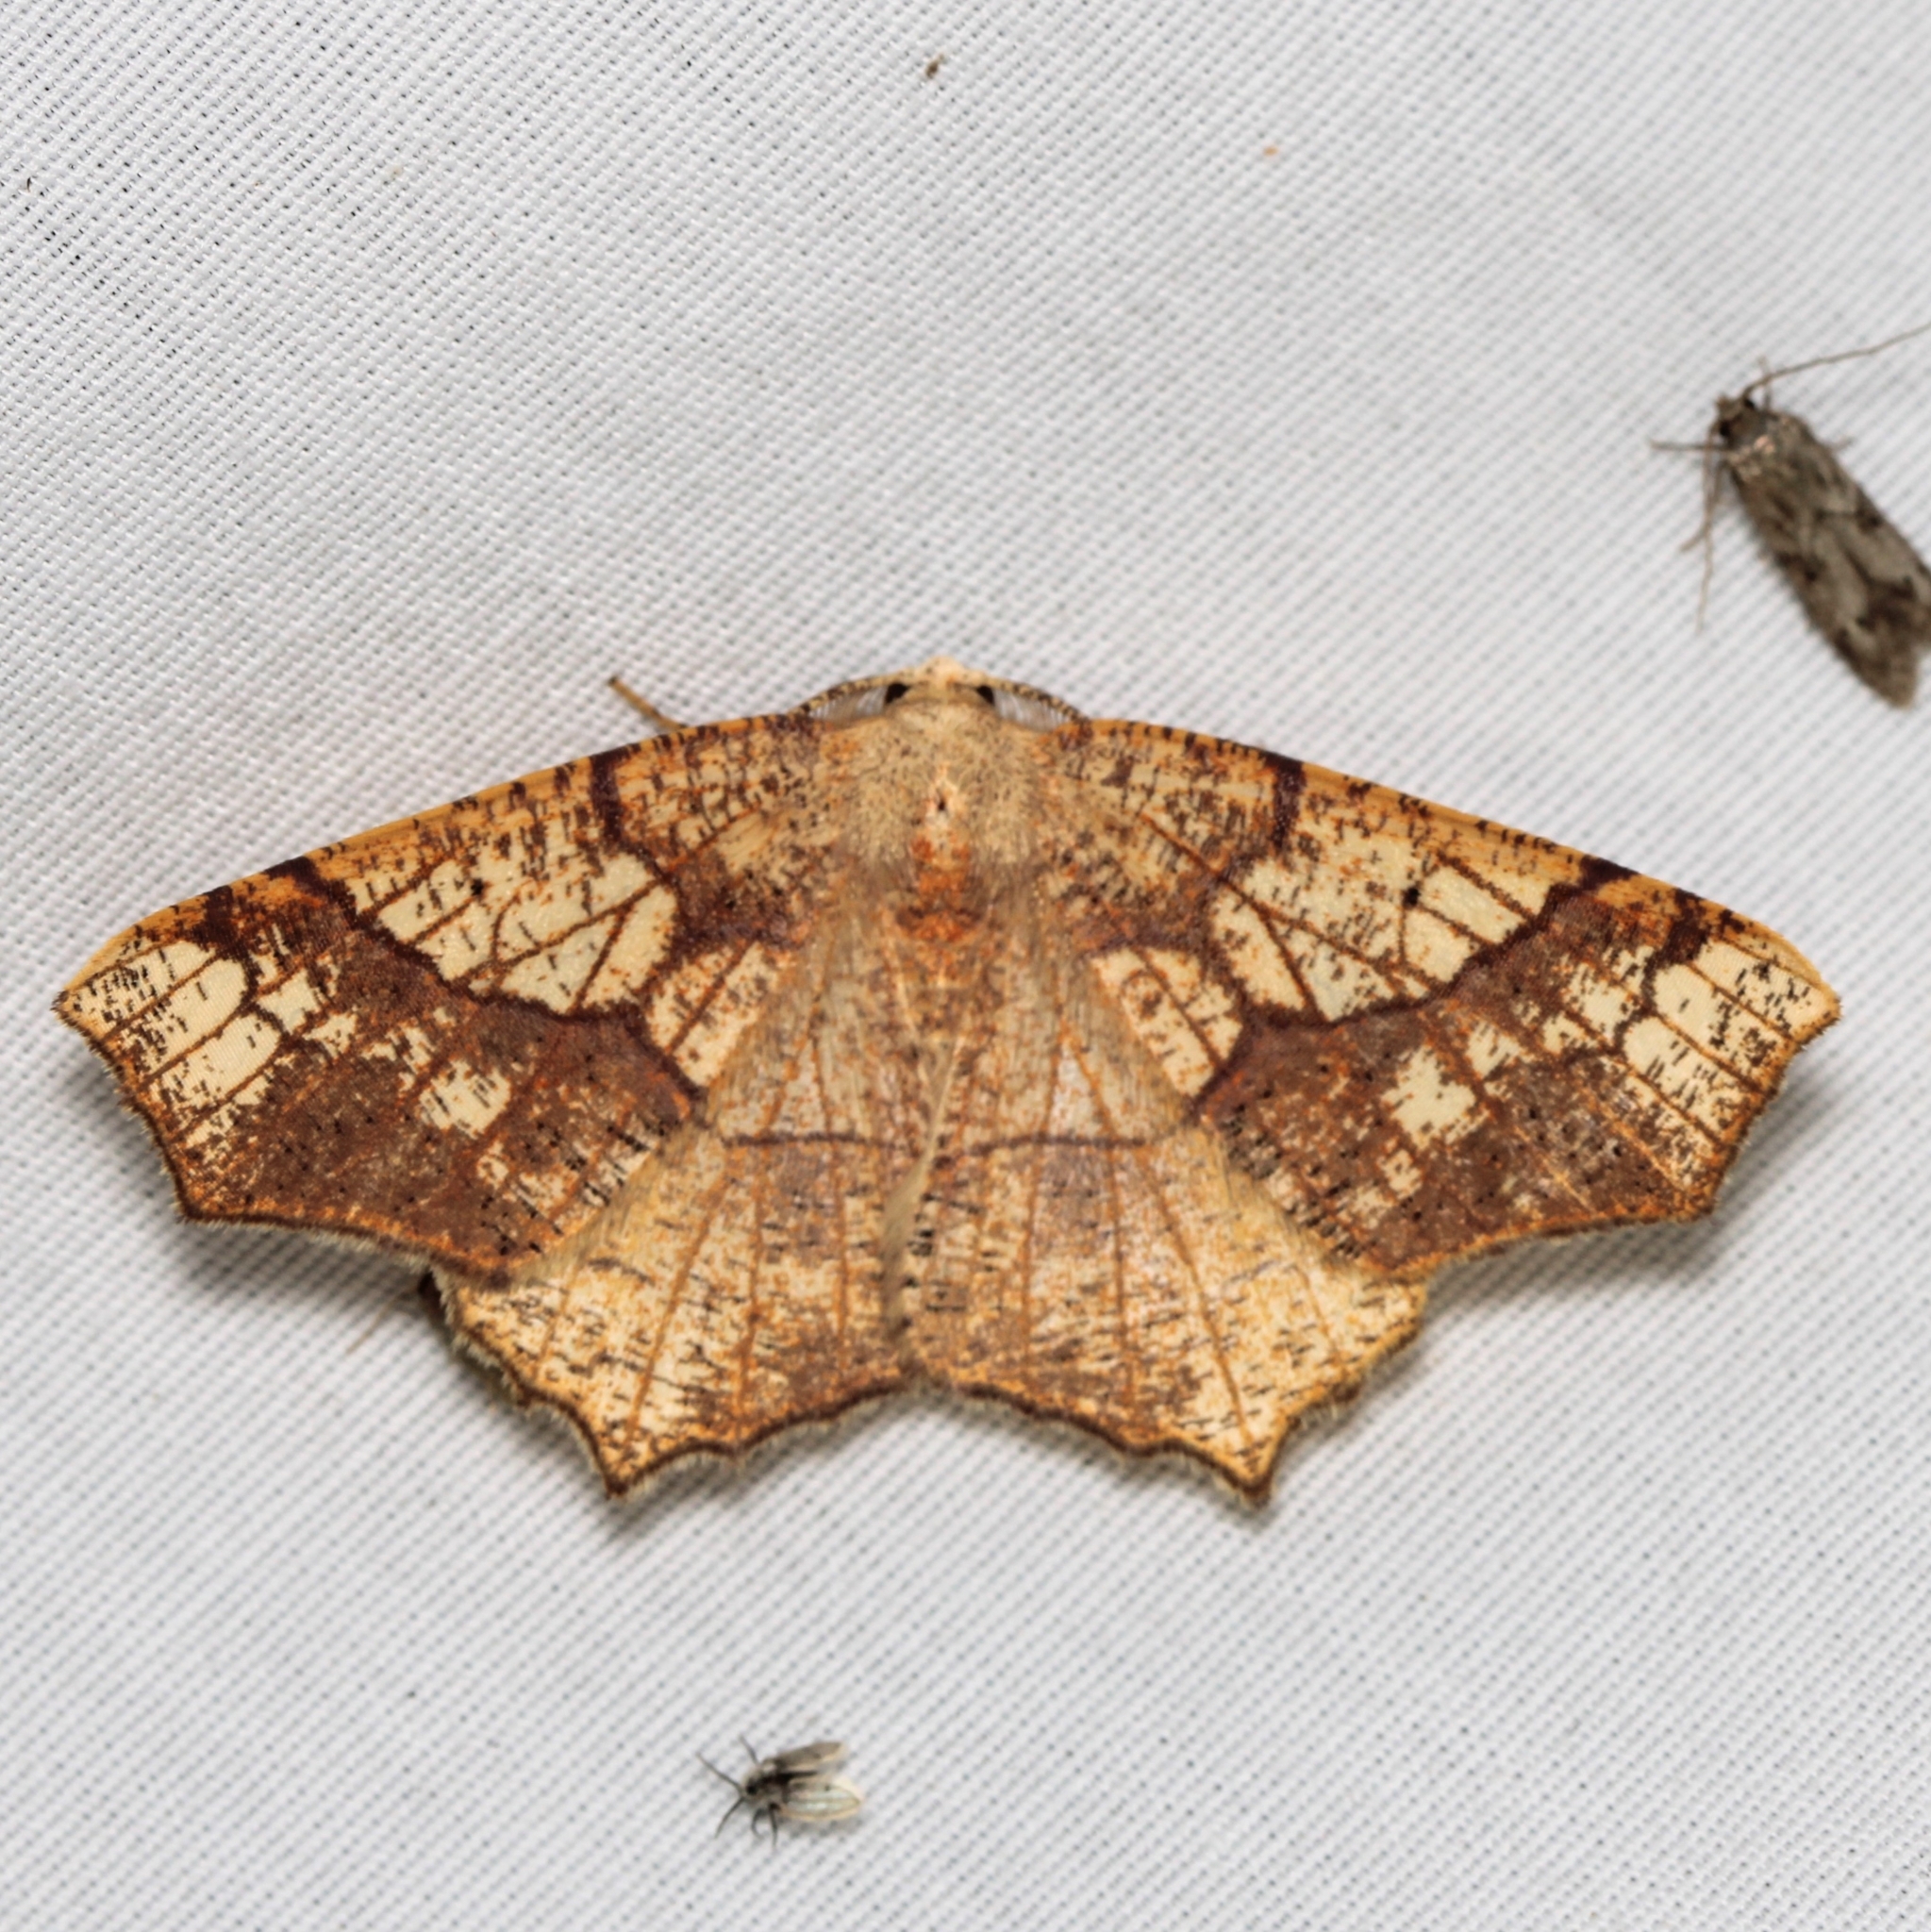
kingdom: Animalia
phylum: Arthropoda
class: Insecta
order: Lepidoptera
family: Geometridae
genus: Besma
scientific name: Besma quercivoraria
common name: Oak besma
